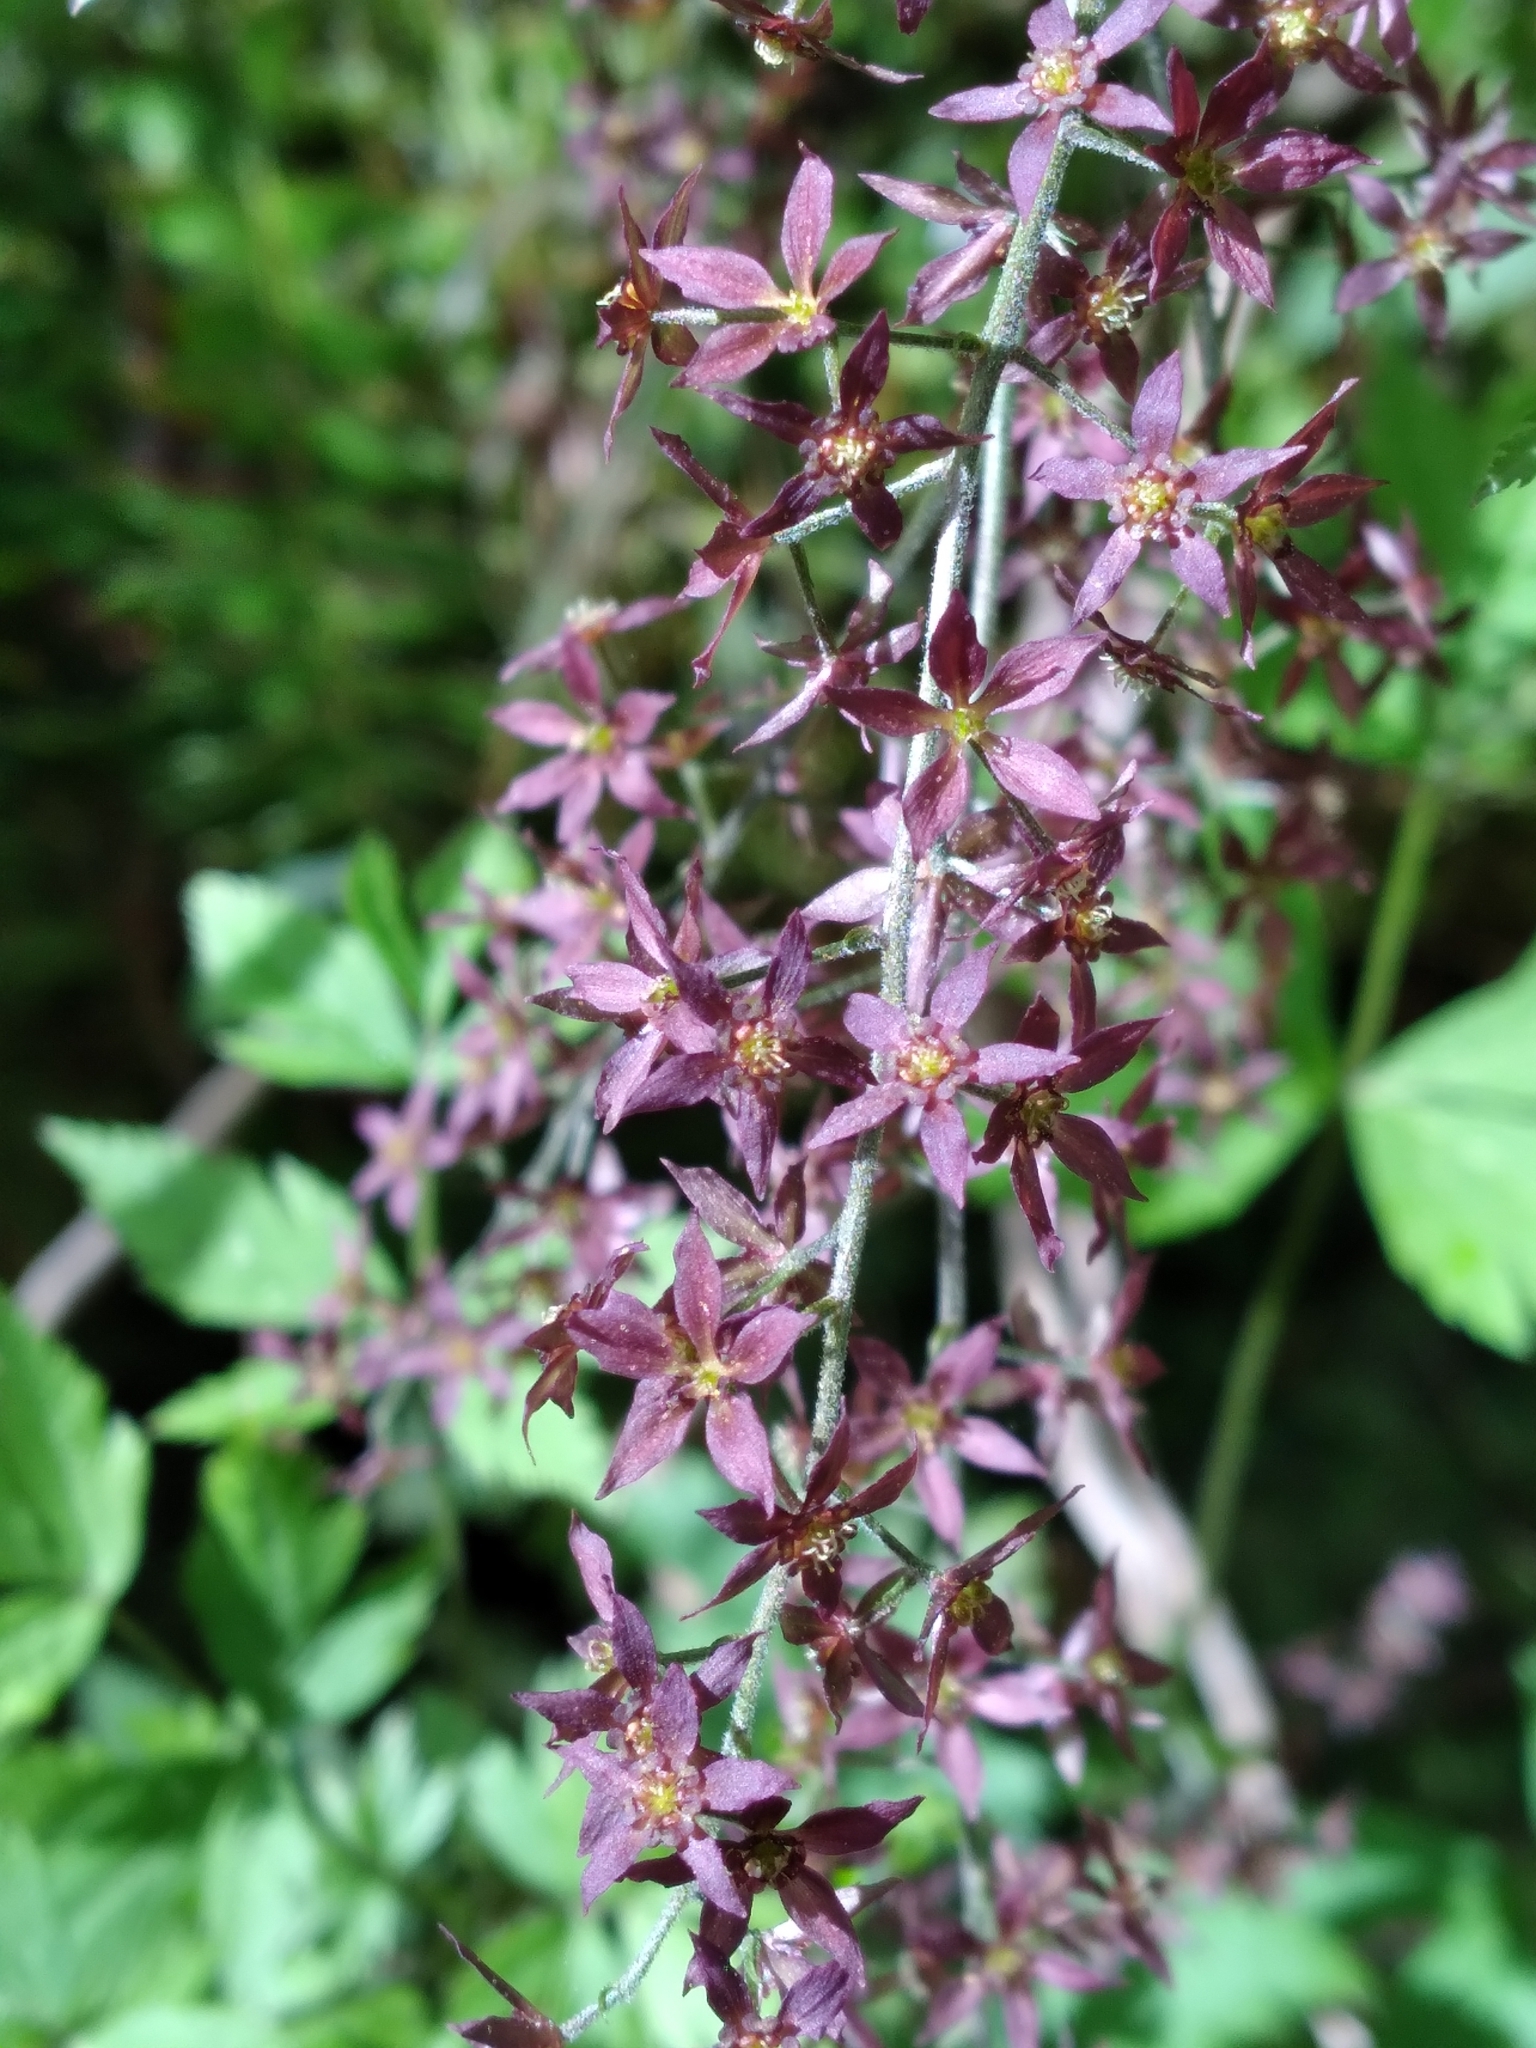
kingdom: Plantae
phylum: Tracheophyta
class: Magnoliopsida
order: Ranunculales
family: Ranunculaceae
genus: Xanthorhiza
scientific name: Xanthorhiza simplicissima
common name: Yellowroot
